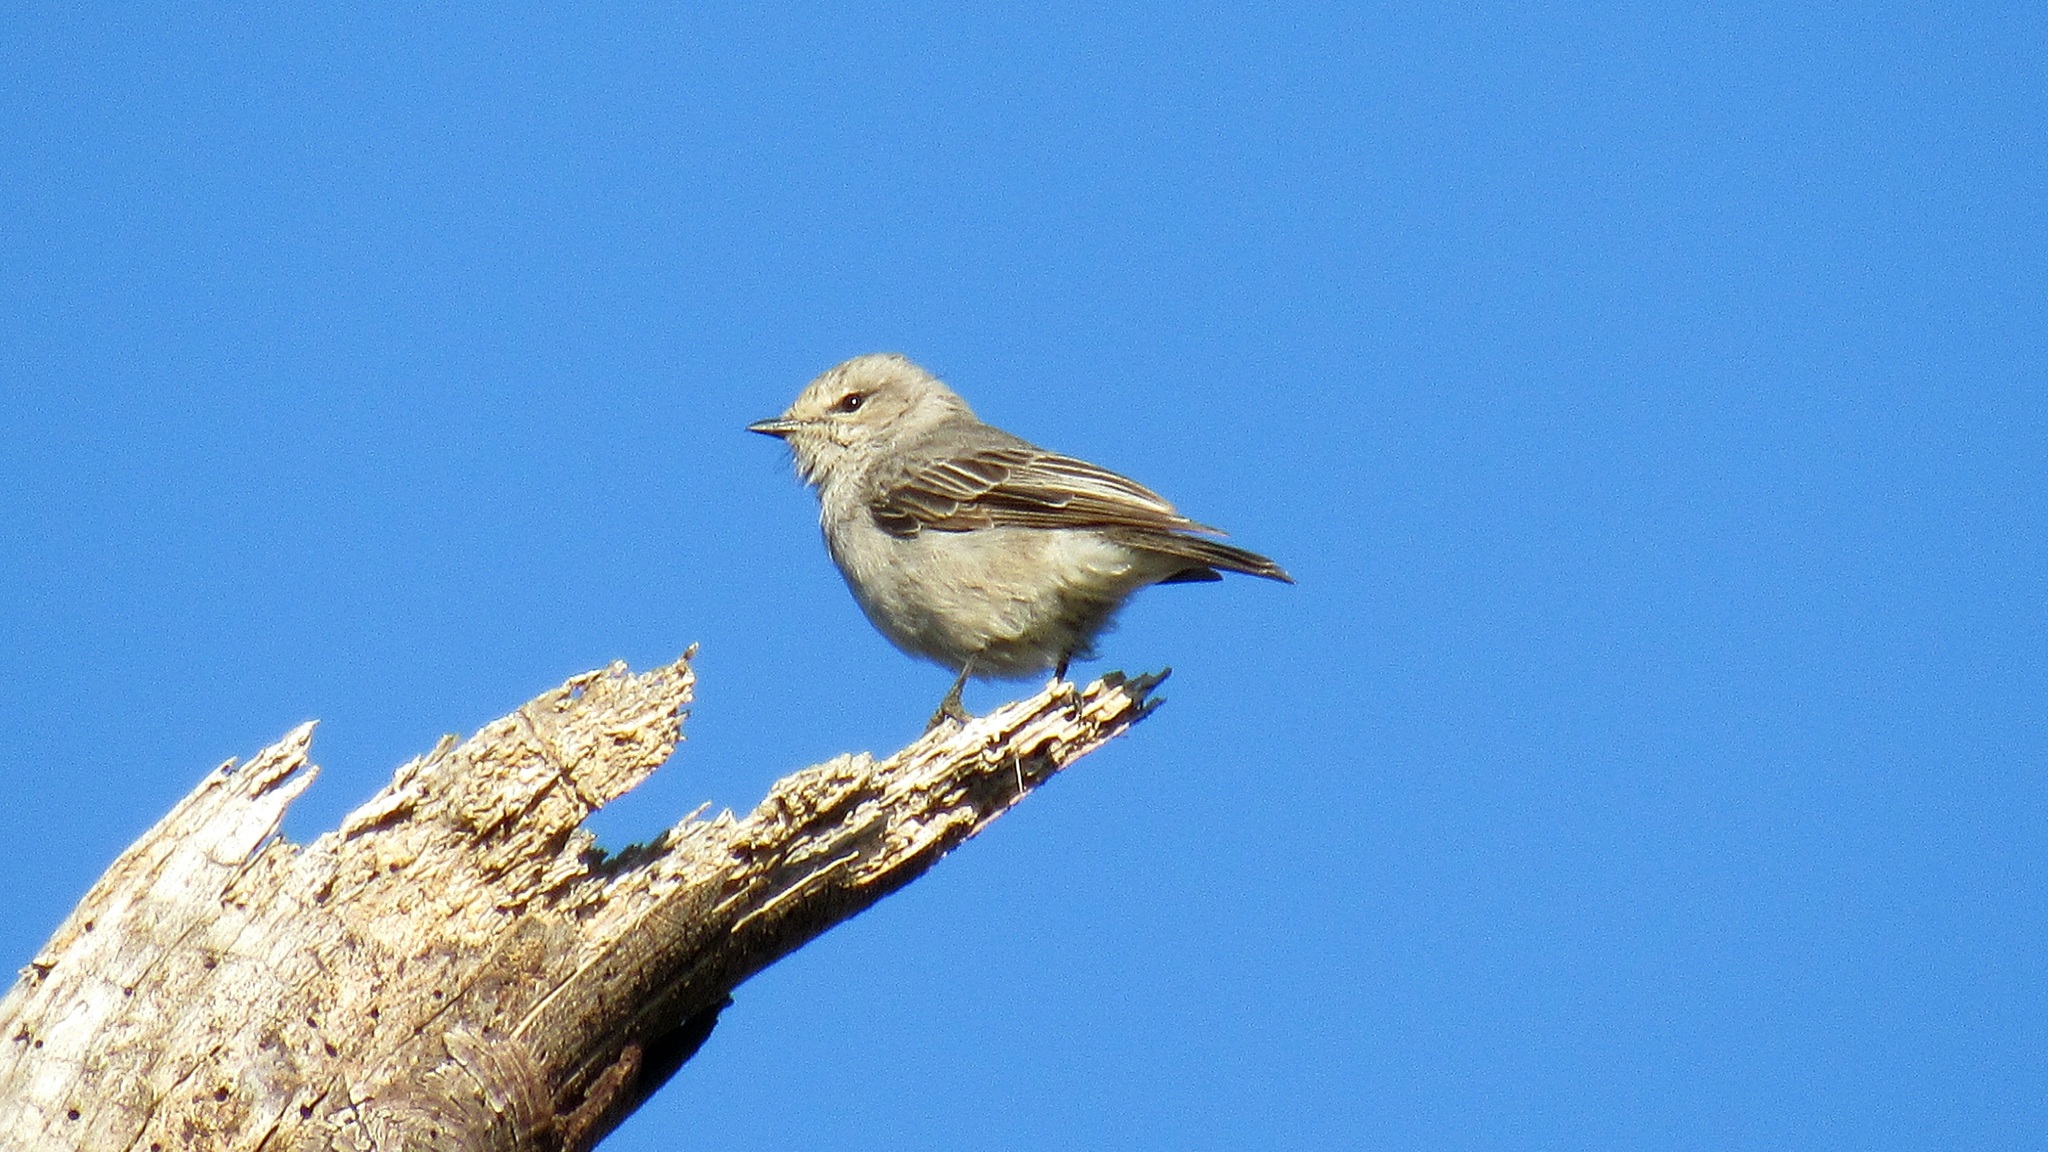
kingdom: Animalia
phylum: Chordata
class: Aves
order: Passeriformes
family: Muscicapidae
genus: Bradornis
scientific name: Bradornis microrhynchus
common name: African grey flycatcher
